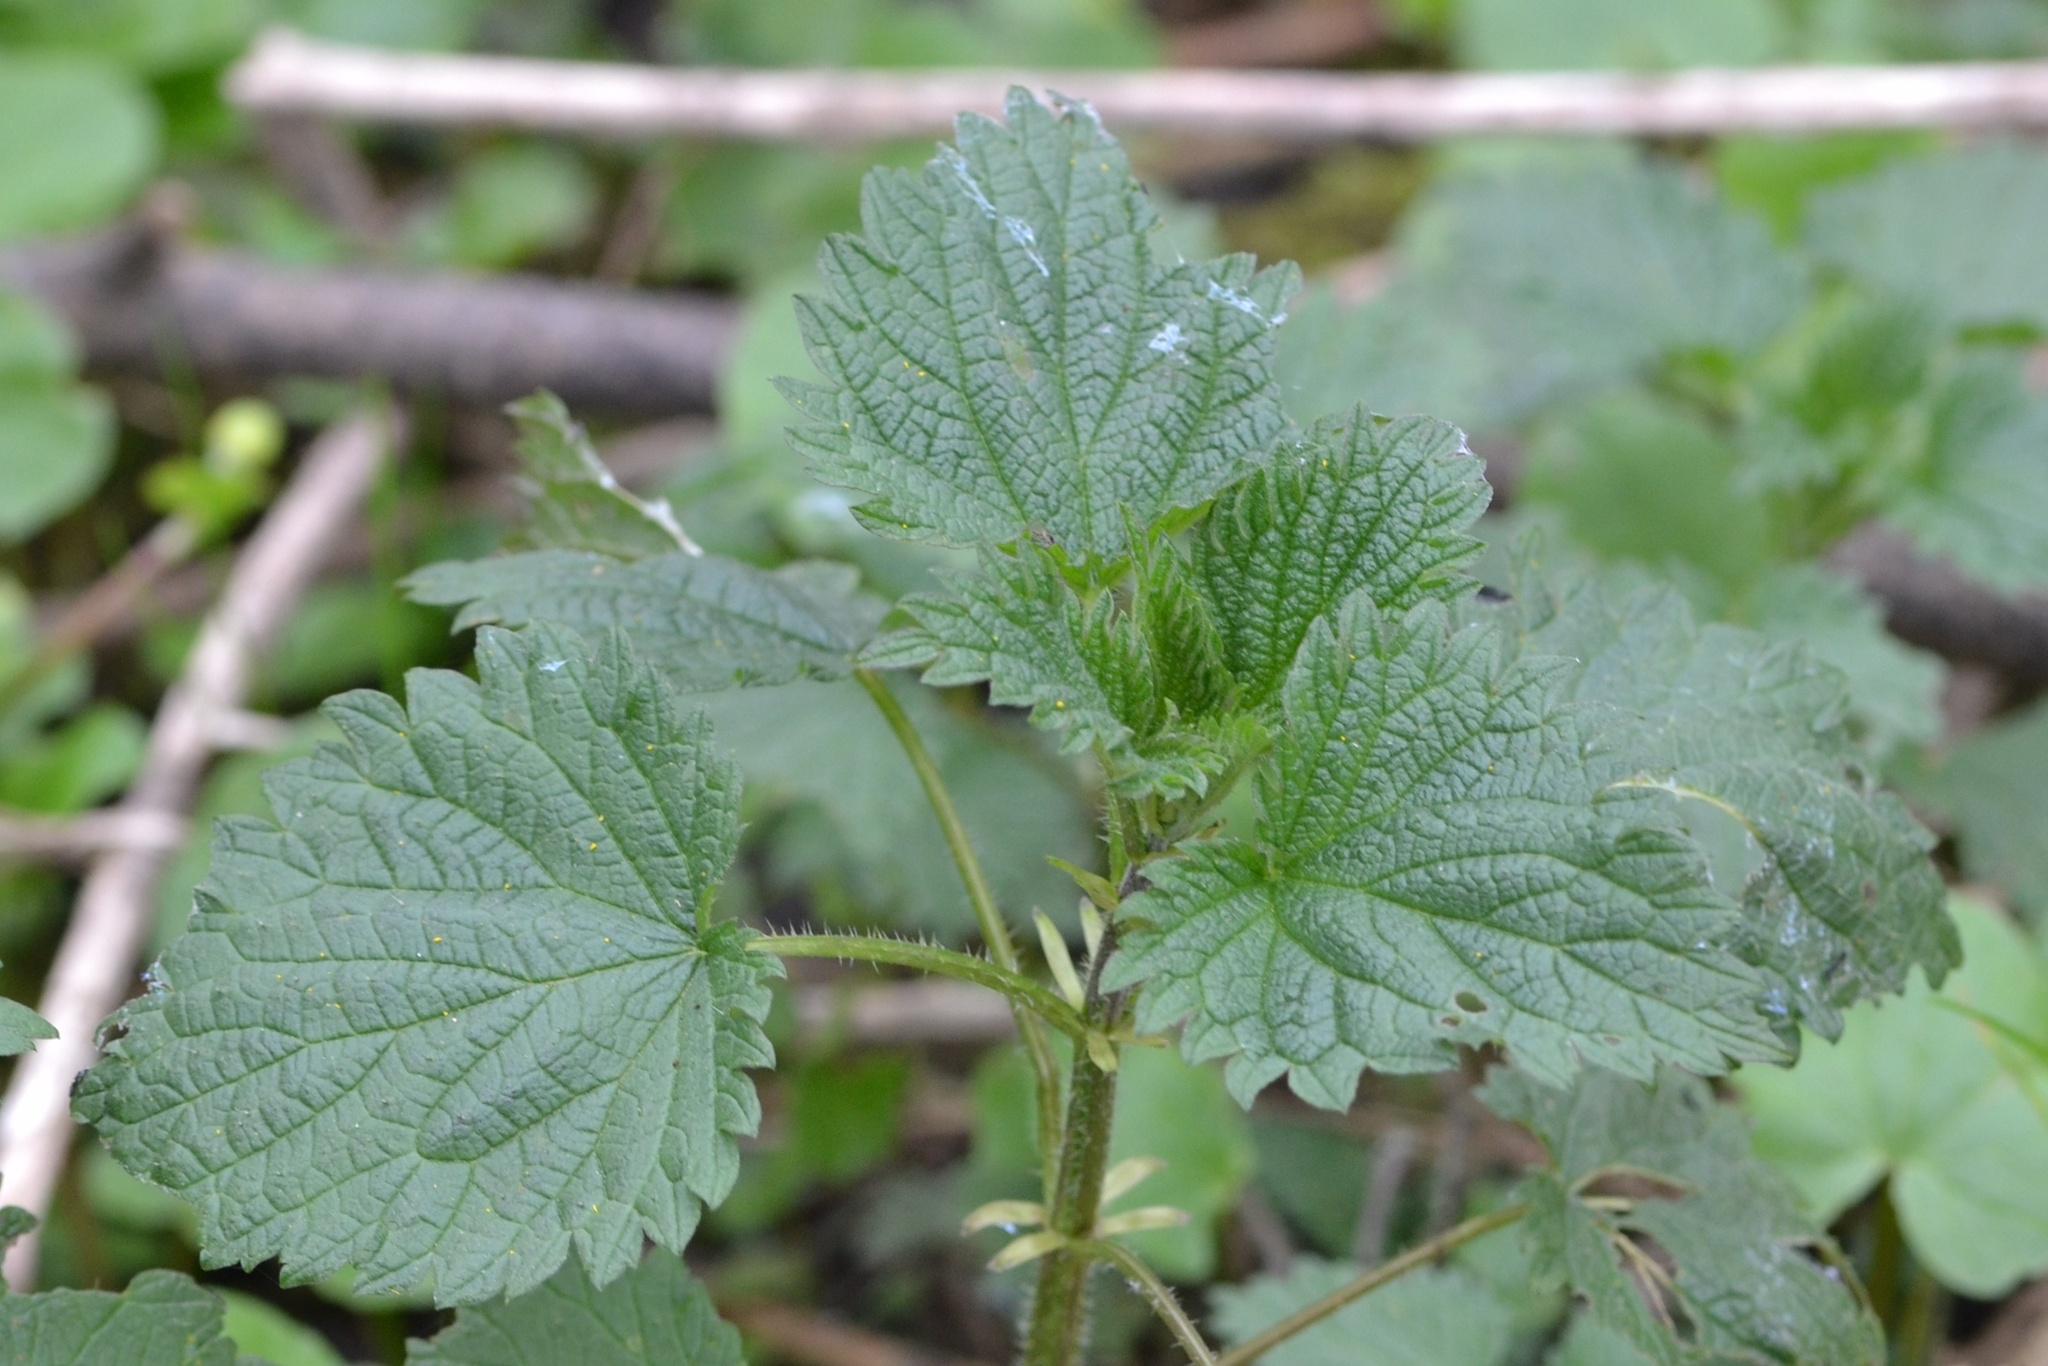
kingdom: Plantae
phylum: Tracheophyta
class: Magnoliopsida
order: Rosales
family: Urticaceae
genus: Urtica
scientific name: Urtica dioica
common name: Common nettle
